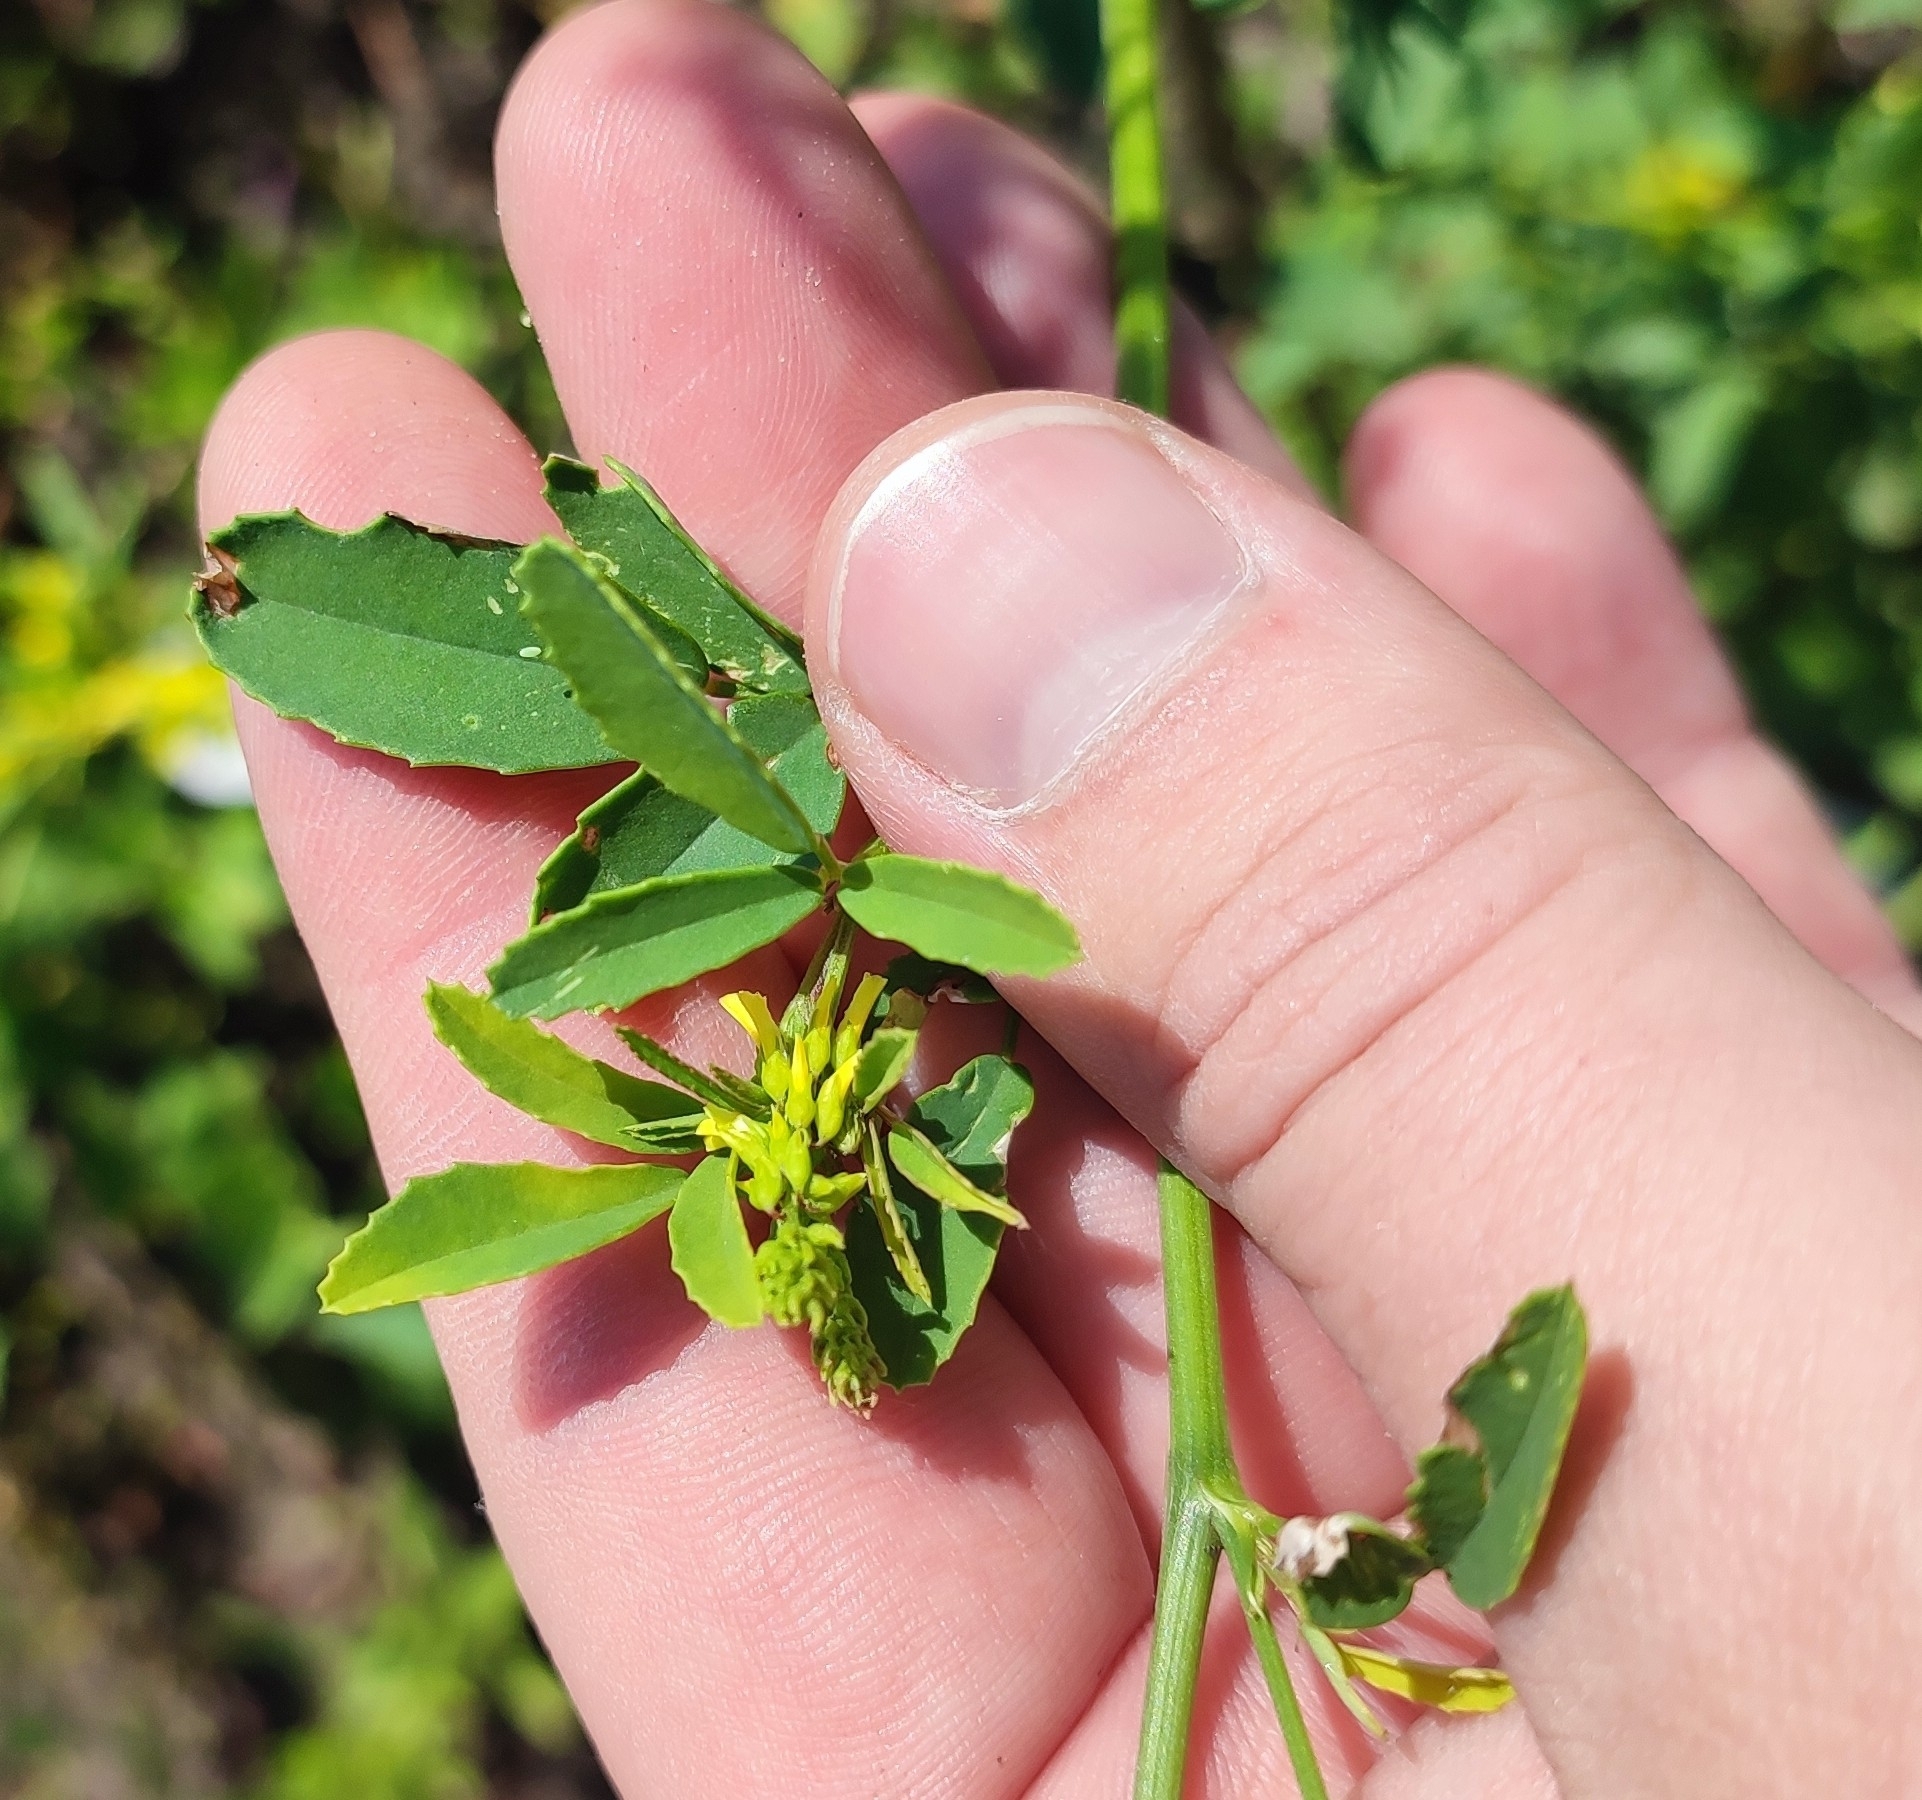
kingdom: Plantae
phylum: Tracheophyta
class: Magnoliopsida
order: Fabales
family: Fabaceae
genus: Melilotus
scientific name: Melilotus officinalis
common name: Sweetclover
